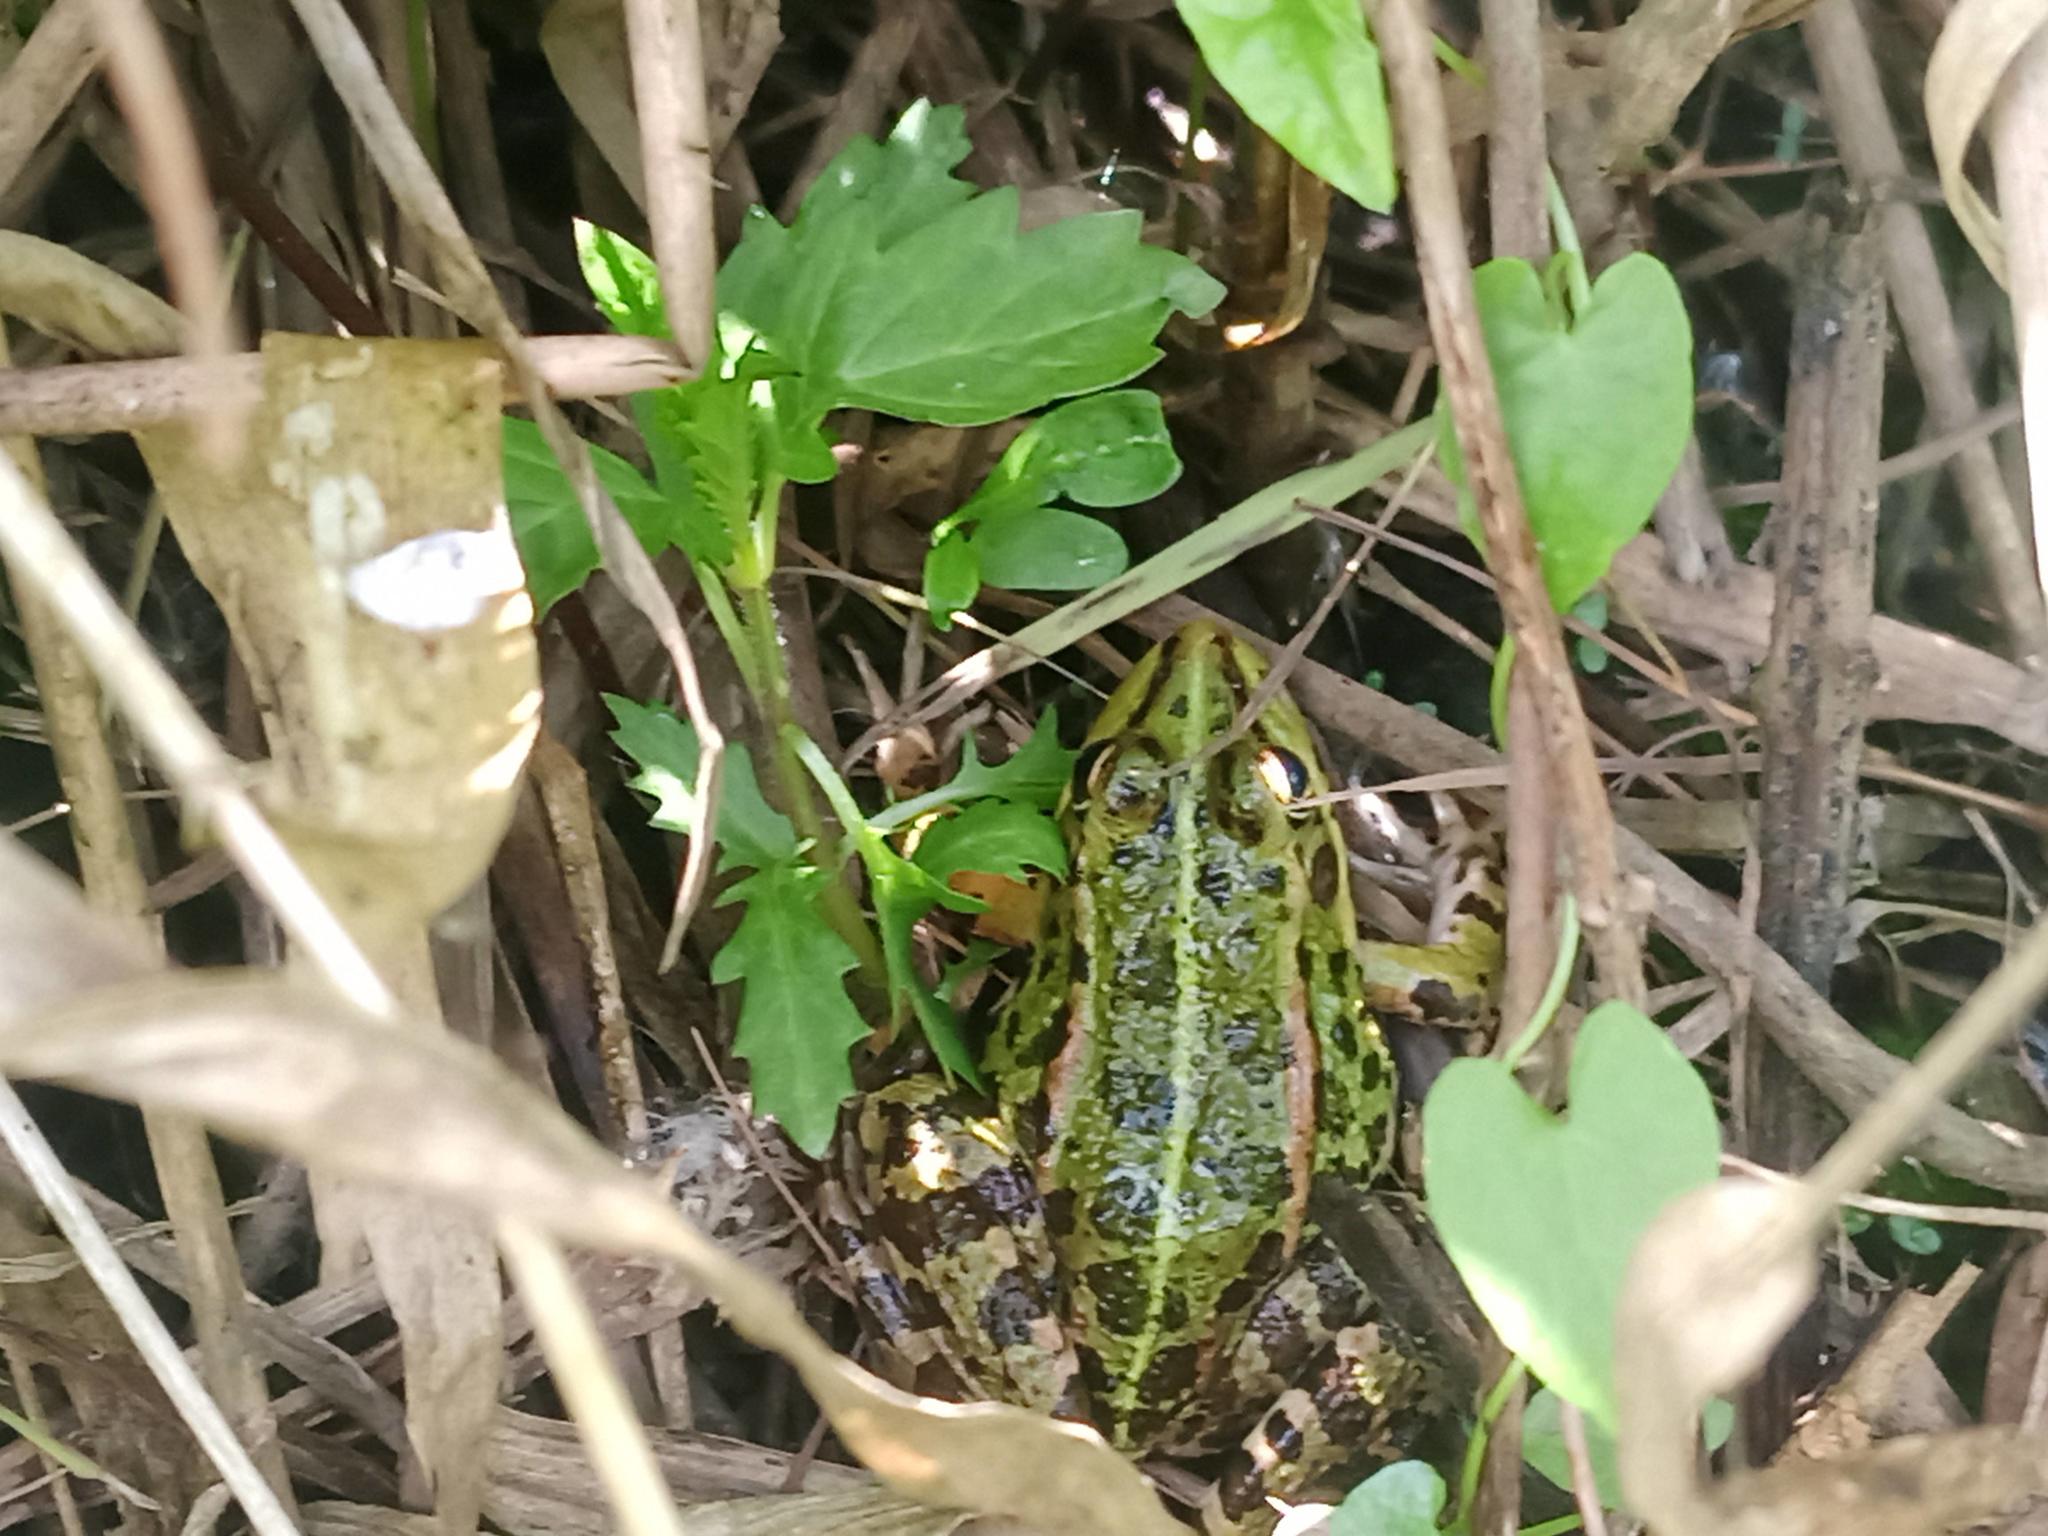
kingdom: Animalia
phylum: Chordata
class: Amphibia
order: Anura
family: Ranidae
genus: Pelophylax
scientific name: Pelophylax perezi
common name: Perez's frog
